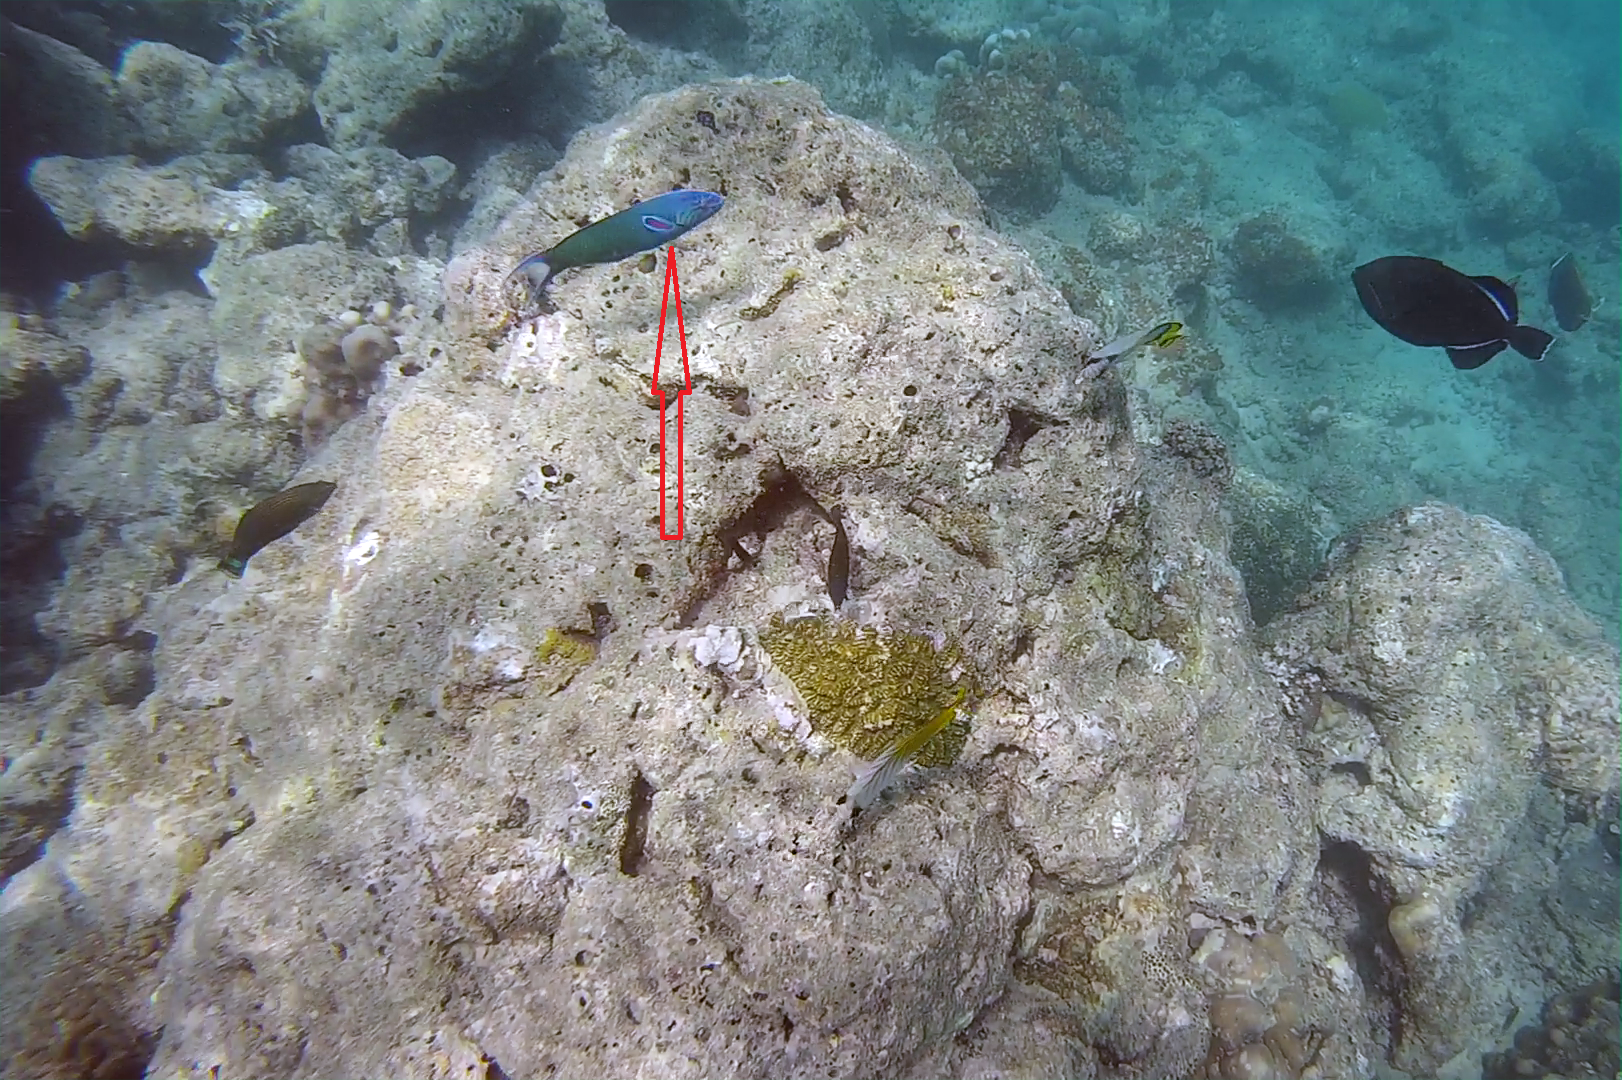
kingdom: Animalia
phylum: Chordata
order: Perciformes
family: Labridae
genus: Thalassoma
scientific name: Thalassoma lunare
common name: Blue wrasse
